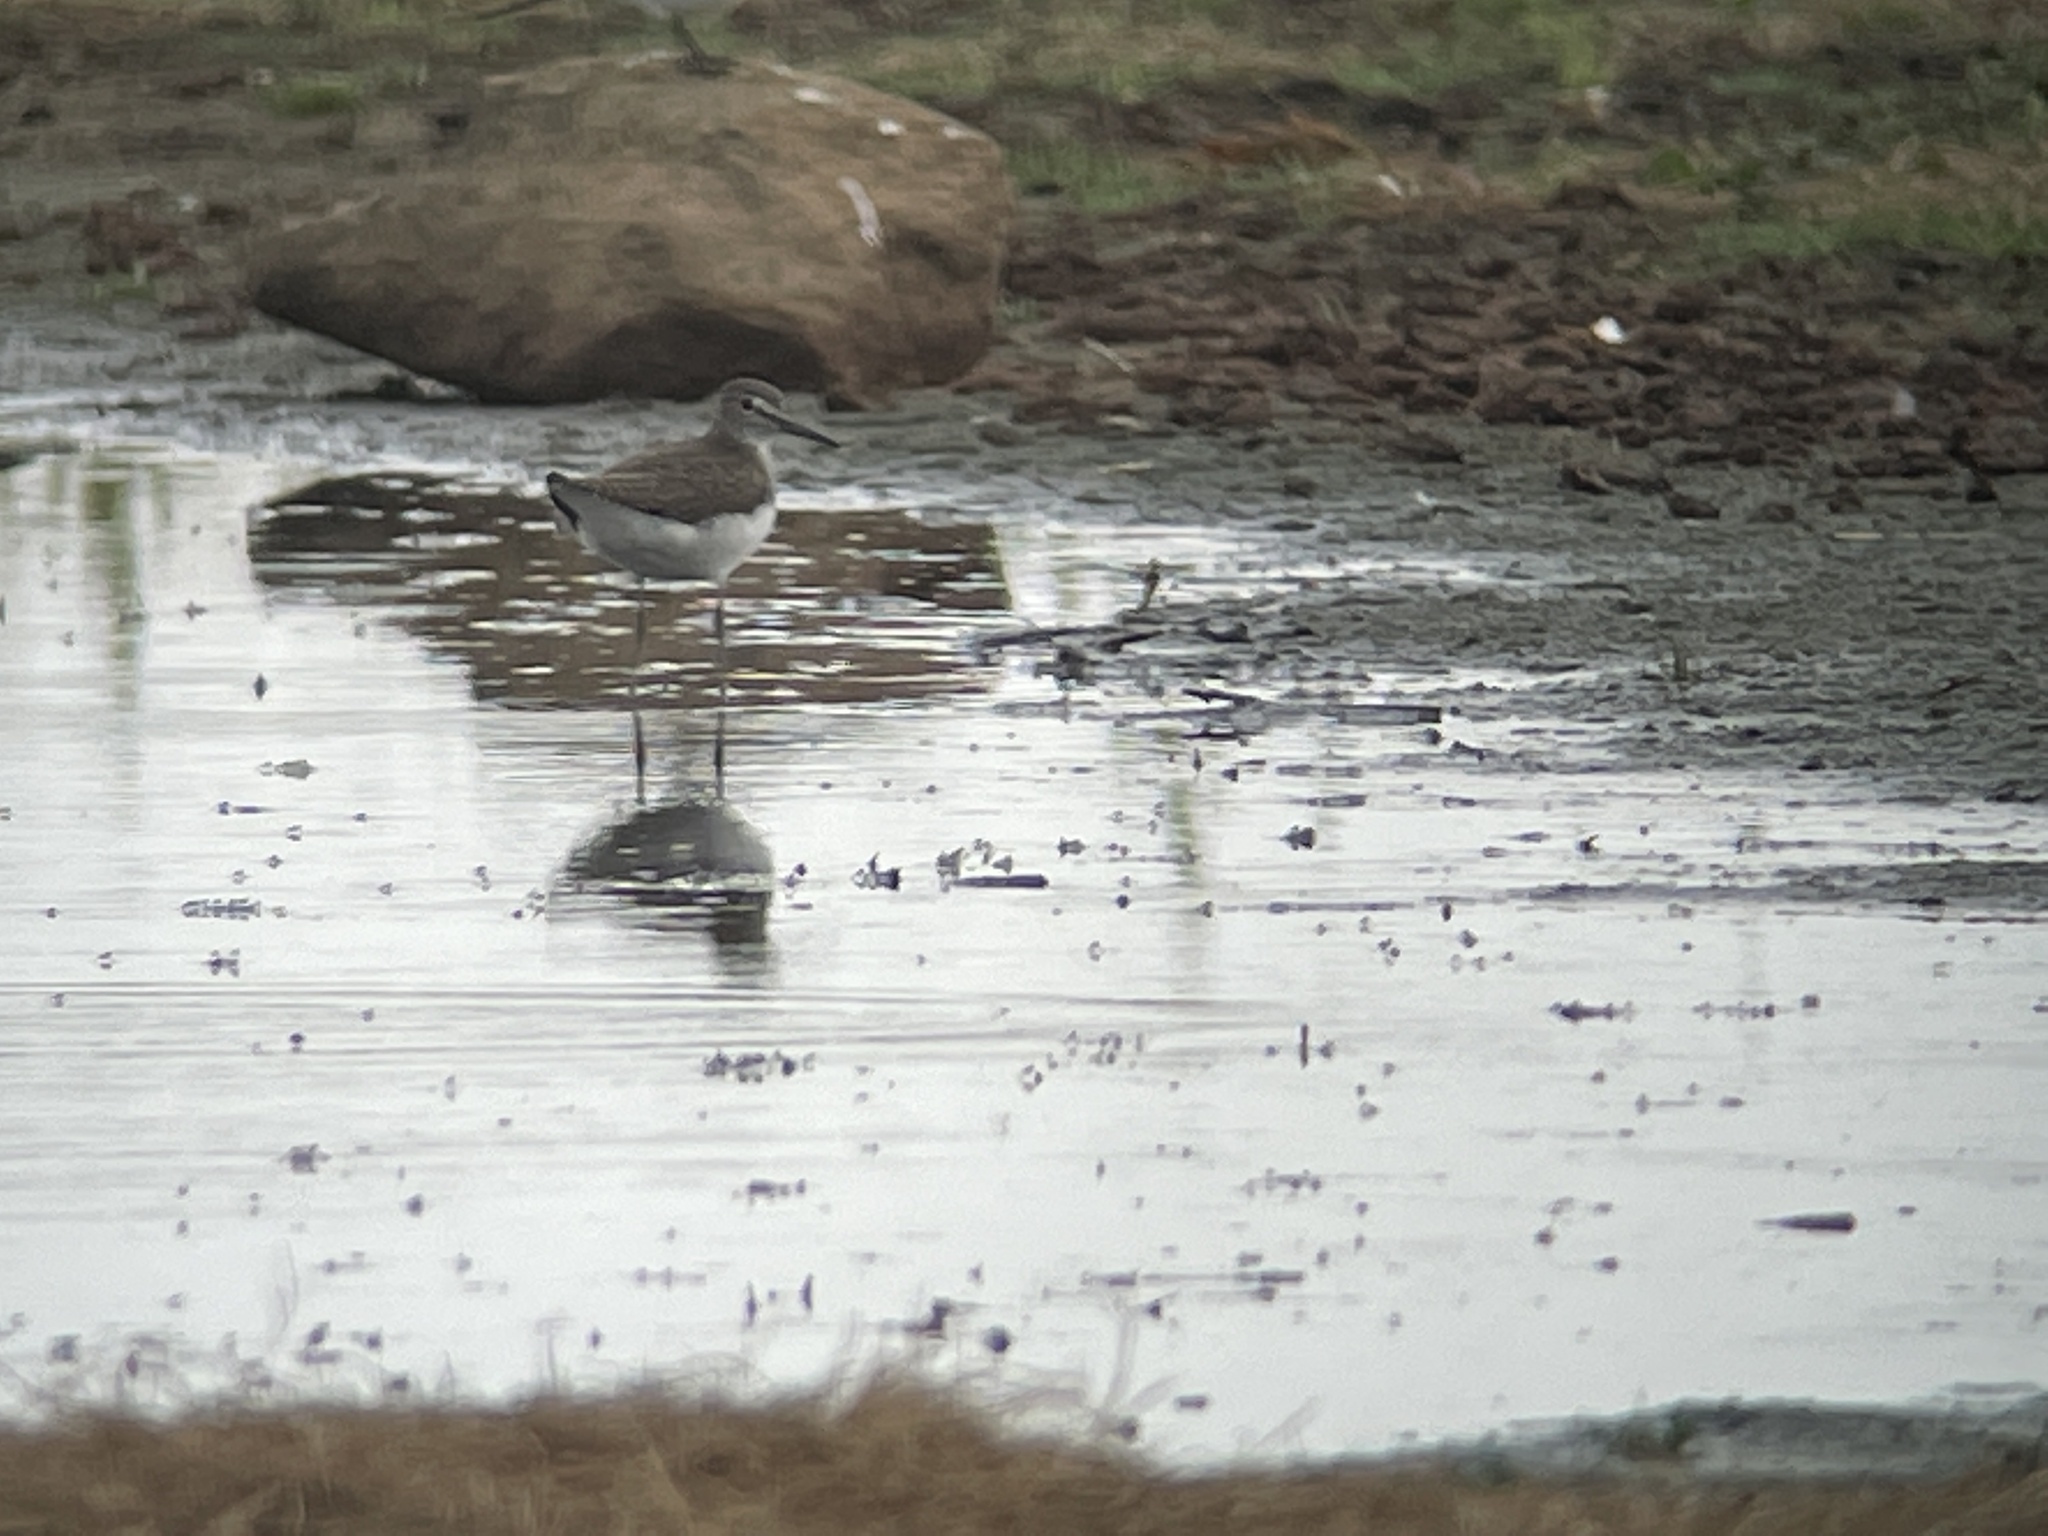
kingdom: Animalia
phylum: Chordata
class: Aves
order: Charadriiformes
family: Scolopacidae
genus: Tringa
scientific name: Tringa ochropus
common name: Green sandpiper
